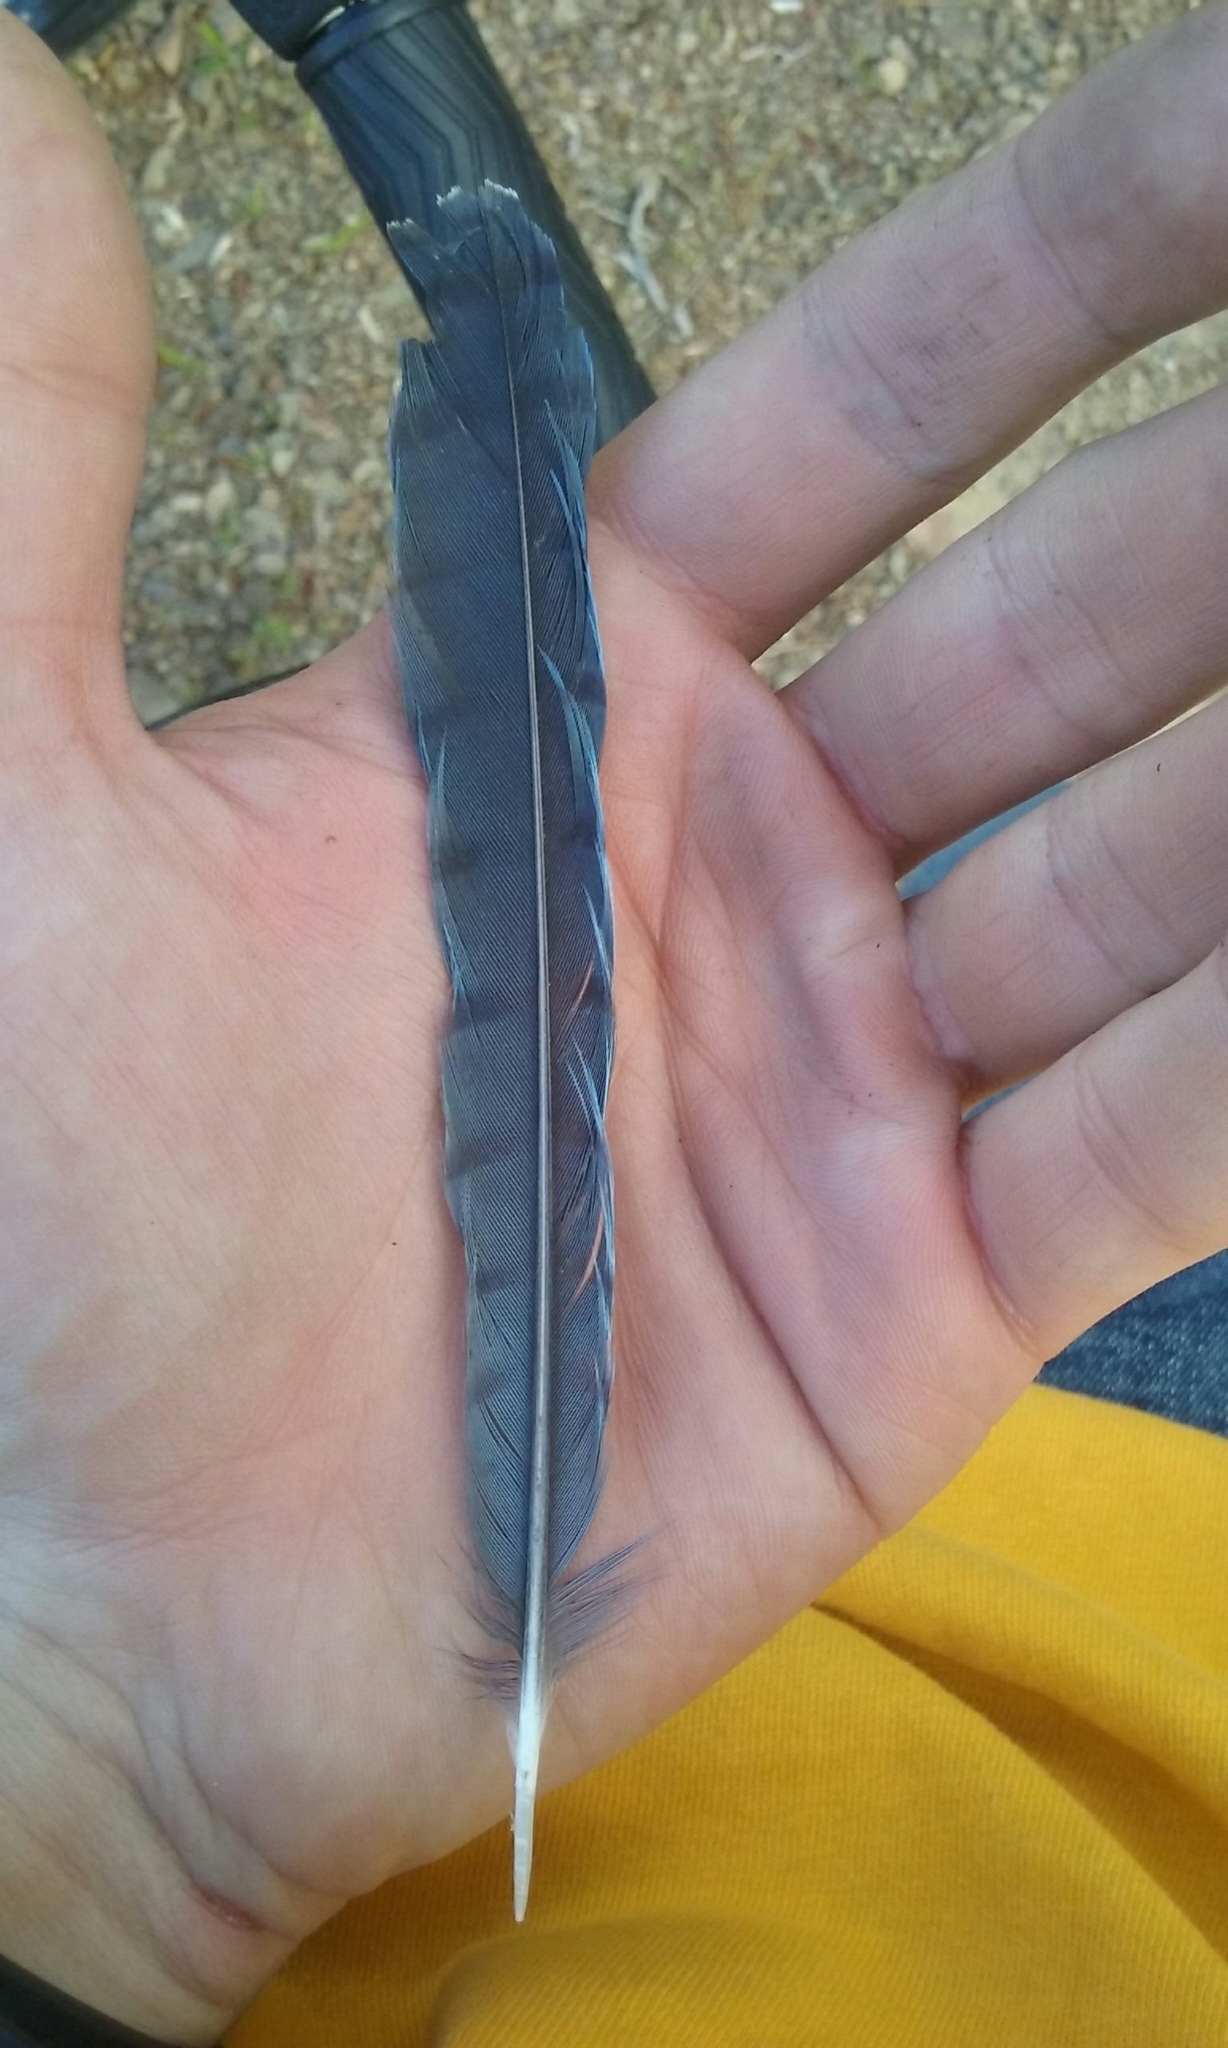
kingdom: Animalia
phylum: Chordata
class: Aves
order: Passeriformes
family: Corvidae
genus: Cyanocitta
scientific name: Cyanocitta cristata
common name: Blue jay
